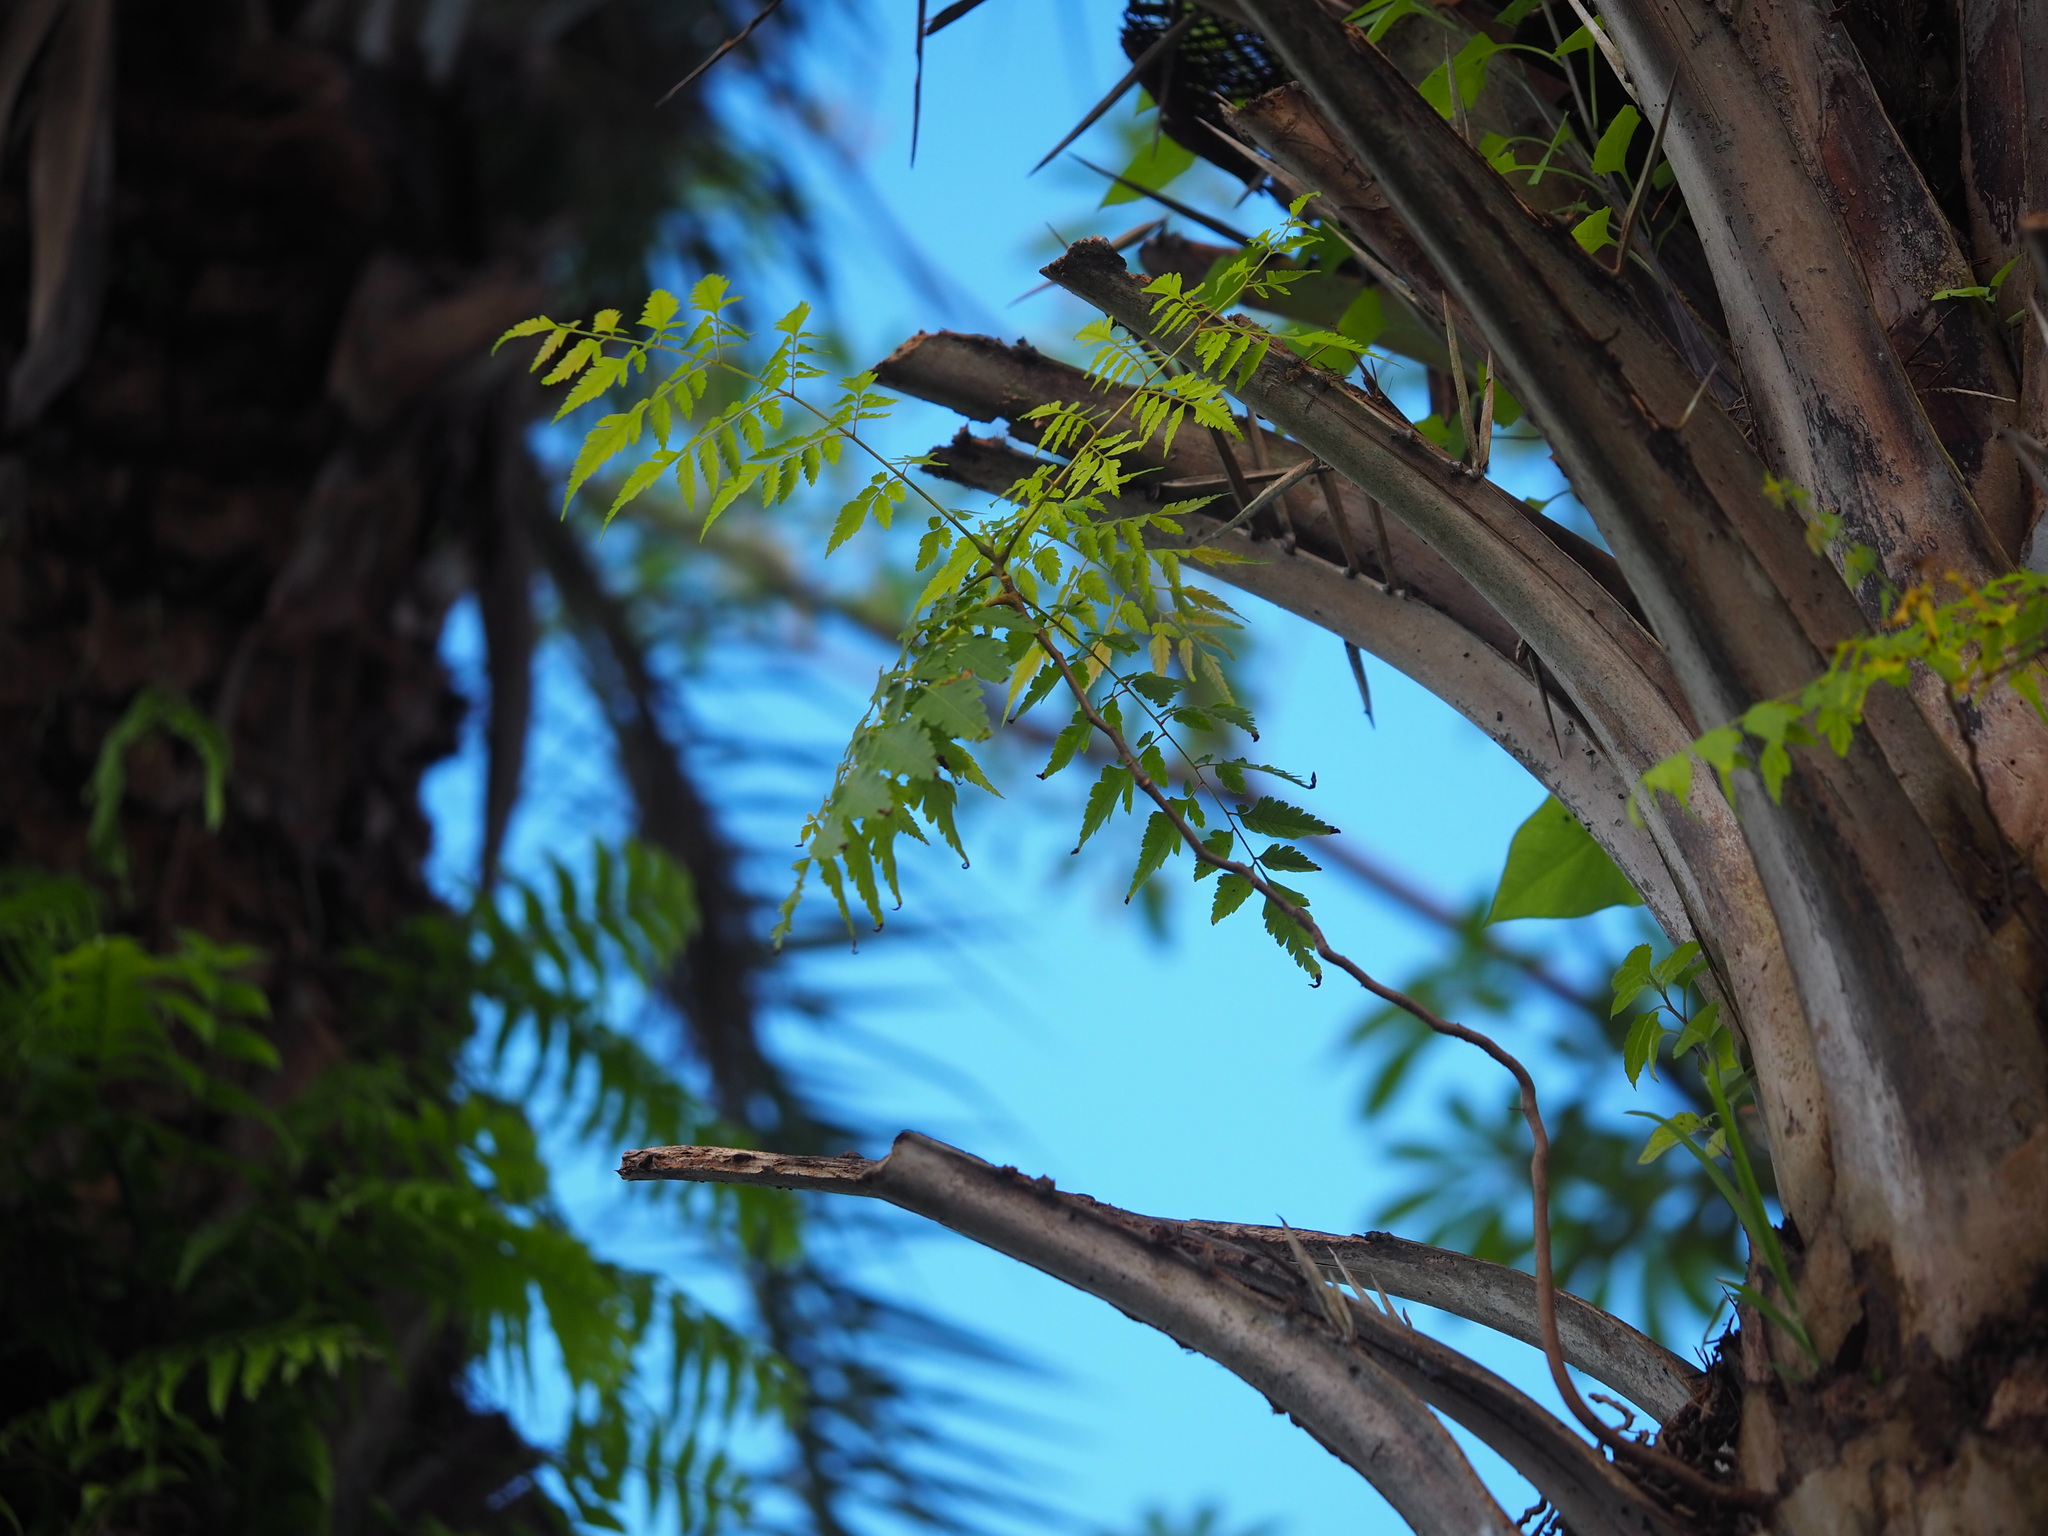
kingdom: Plantae
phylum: Tracheophyta
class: Magnoliopsida
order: Sapindales
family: Sapindaceae
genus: Koelreuteria
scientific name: Koelreuteria elegans
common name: Chinese flame tree
